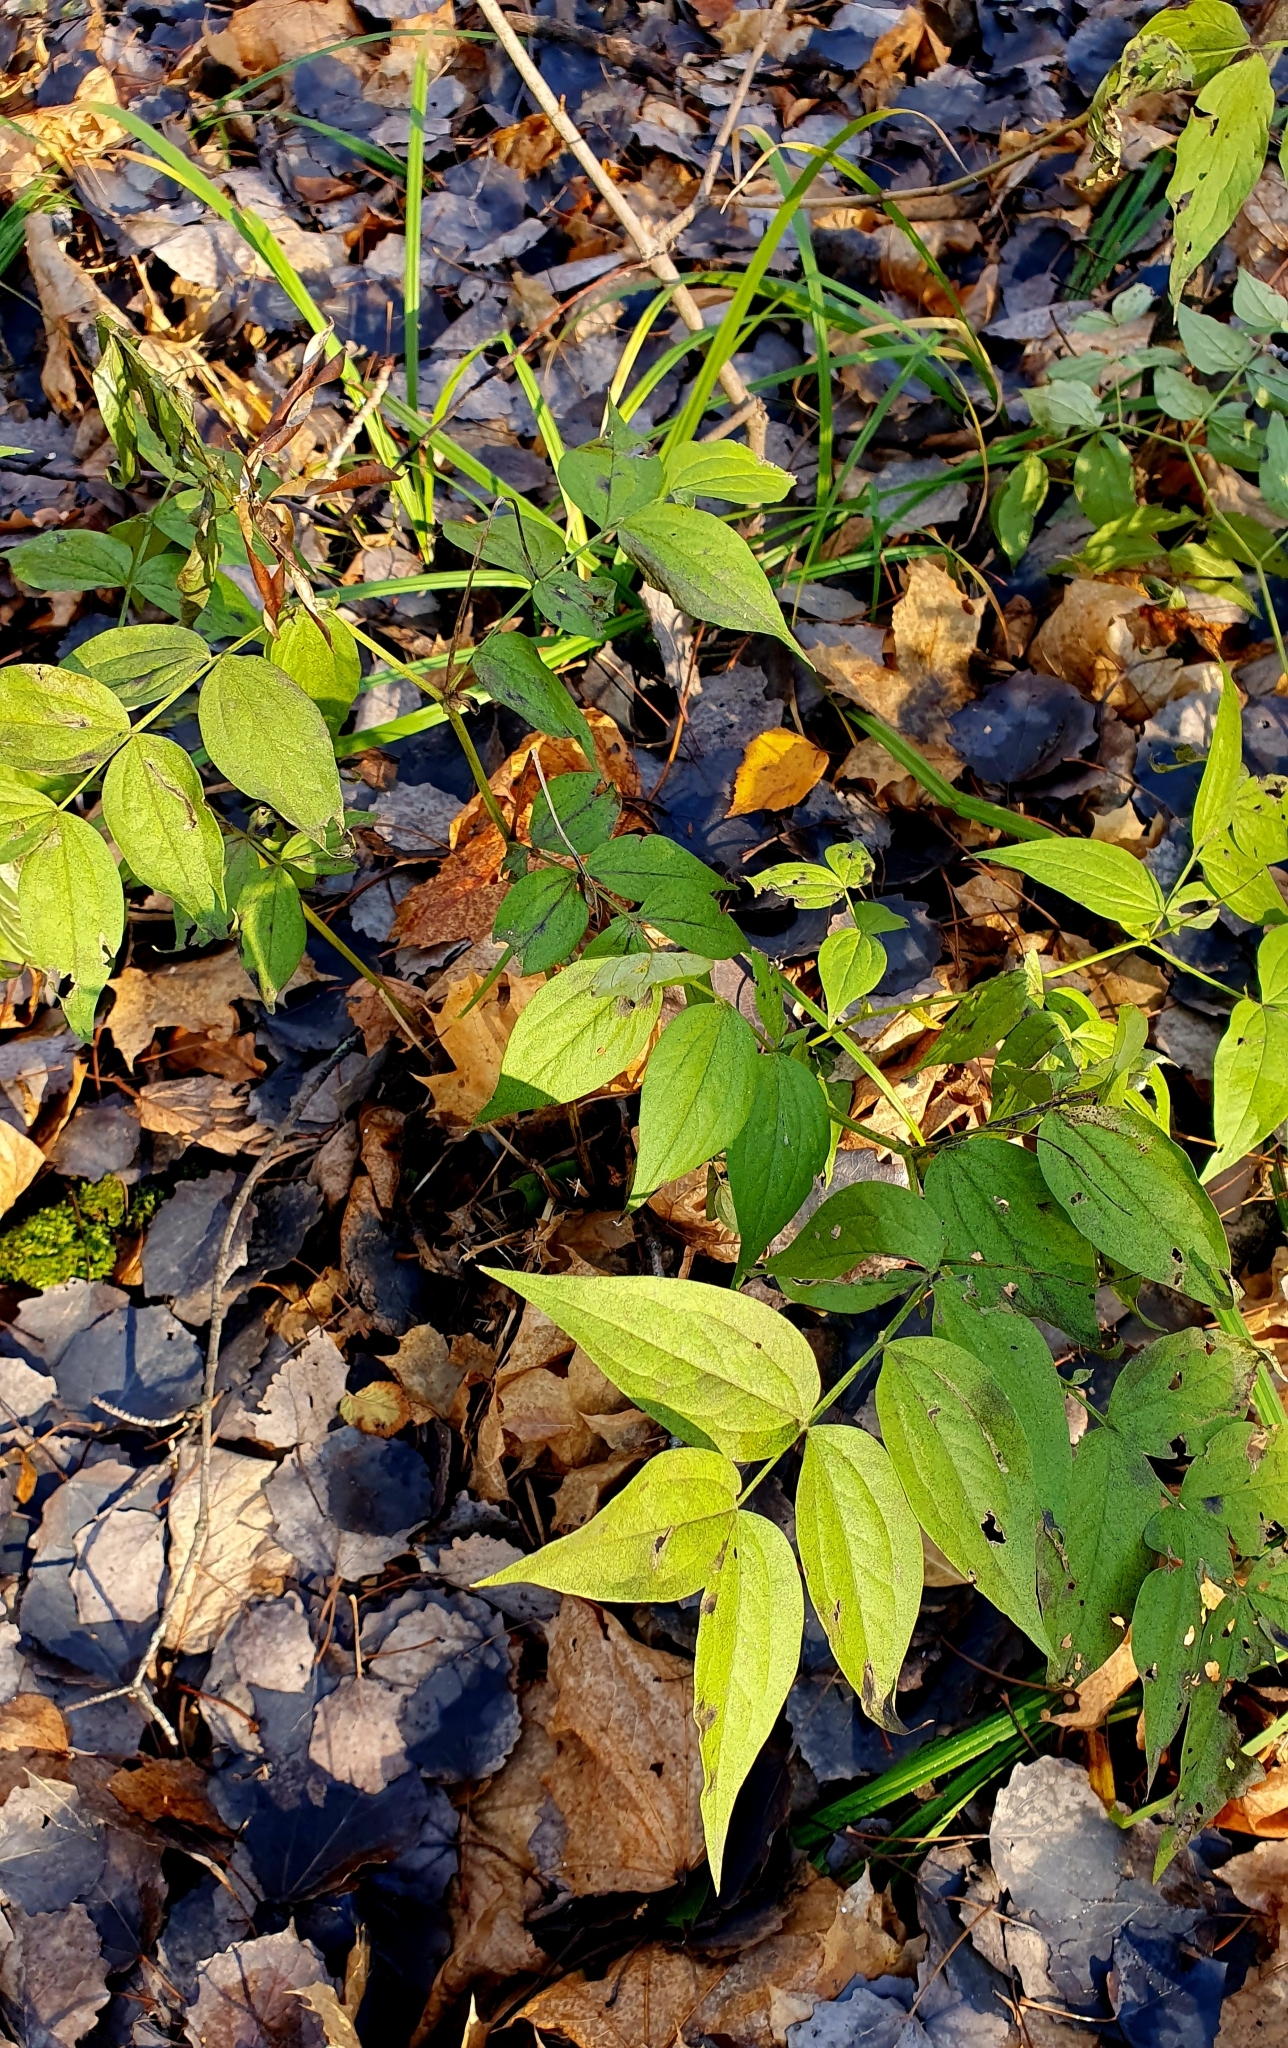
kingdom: Plantae
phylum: Tracheophyta
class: Magnoliopsida
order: Fabales
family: Fabaceae
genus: Lathyrus
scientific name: Lathyrus vernus
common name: Spring pea
